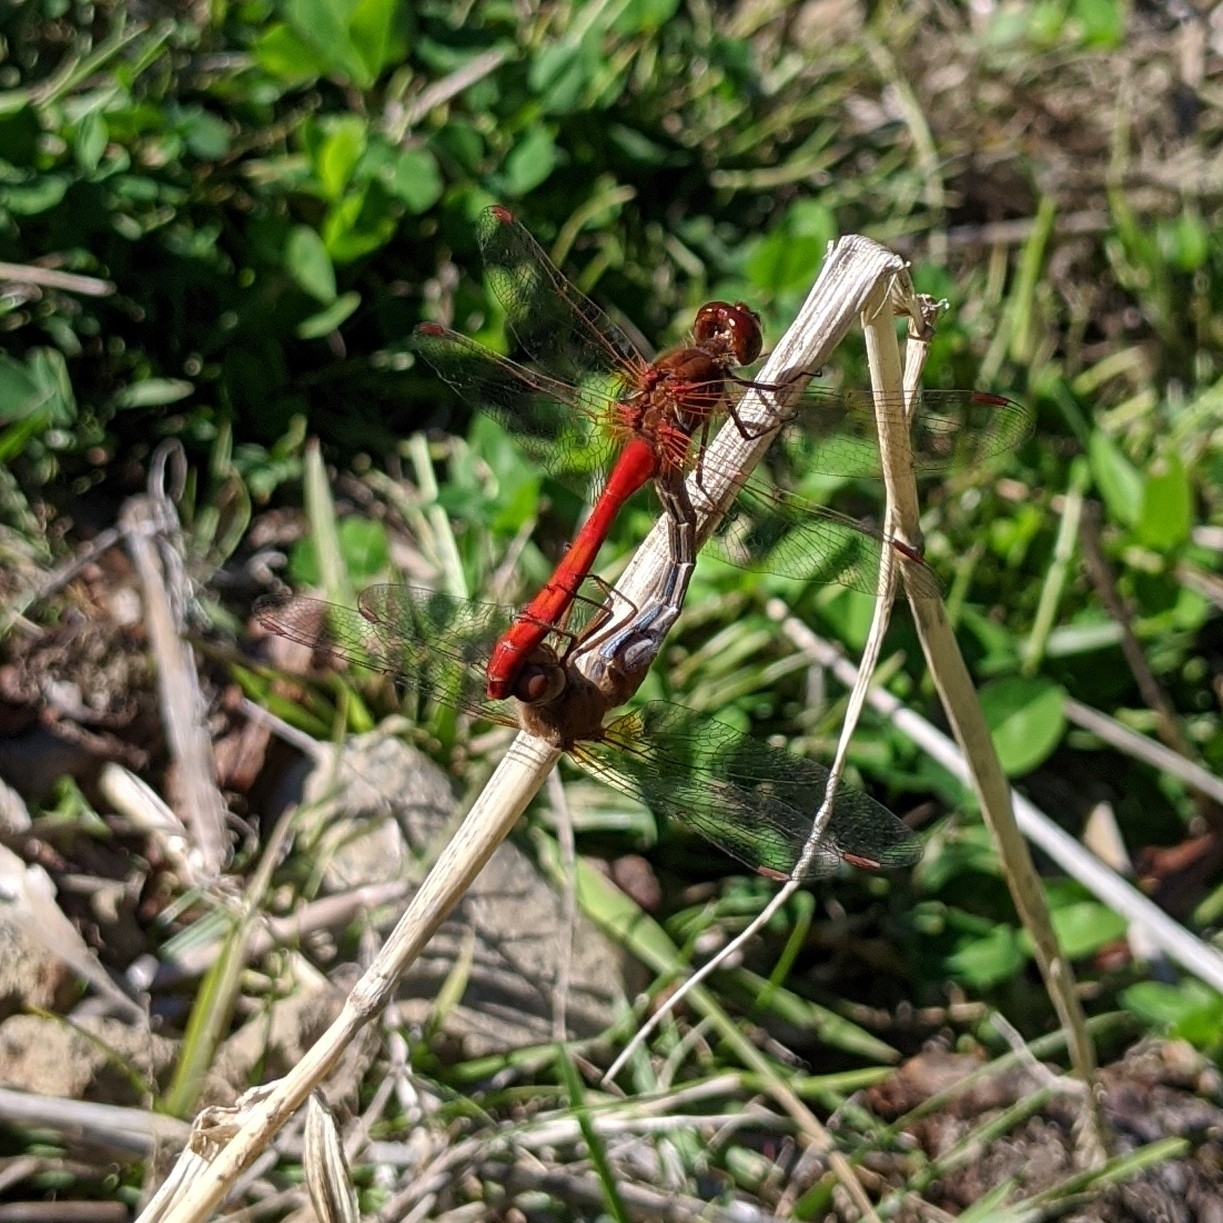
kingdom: Animalia
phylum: Arthropoda
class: Insecta
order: Odonata
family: Libellulidae
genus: Sympetrum
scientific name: Sympetrum vicinum
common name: Autumn meadowhawk
